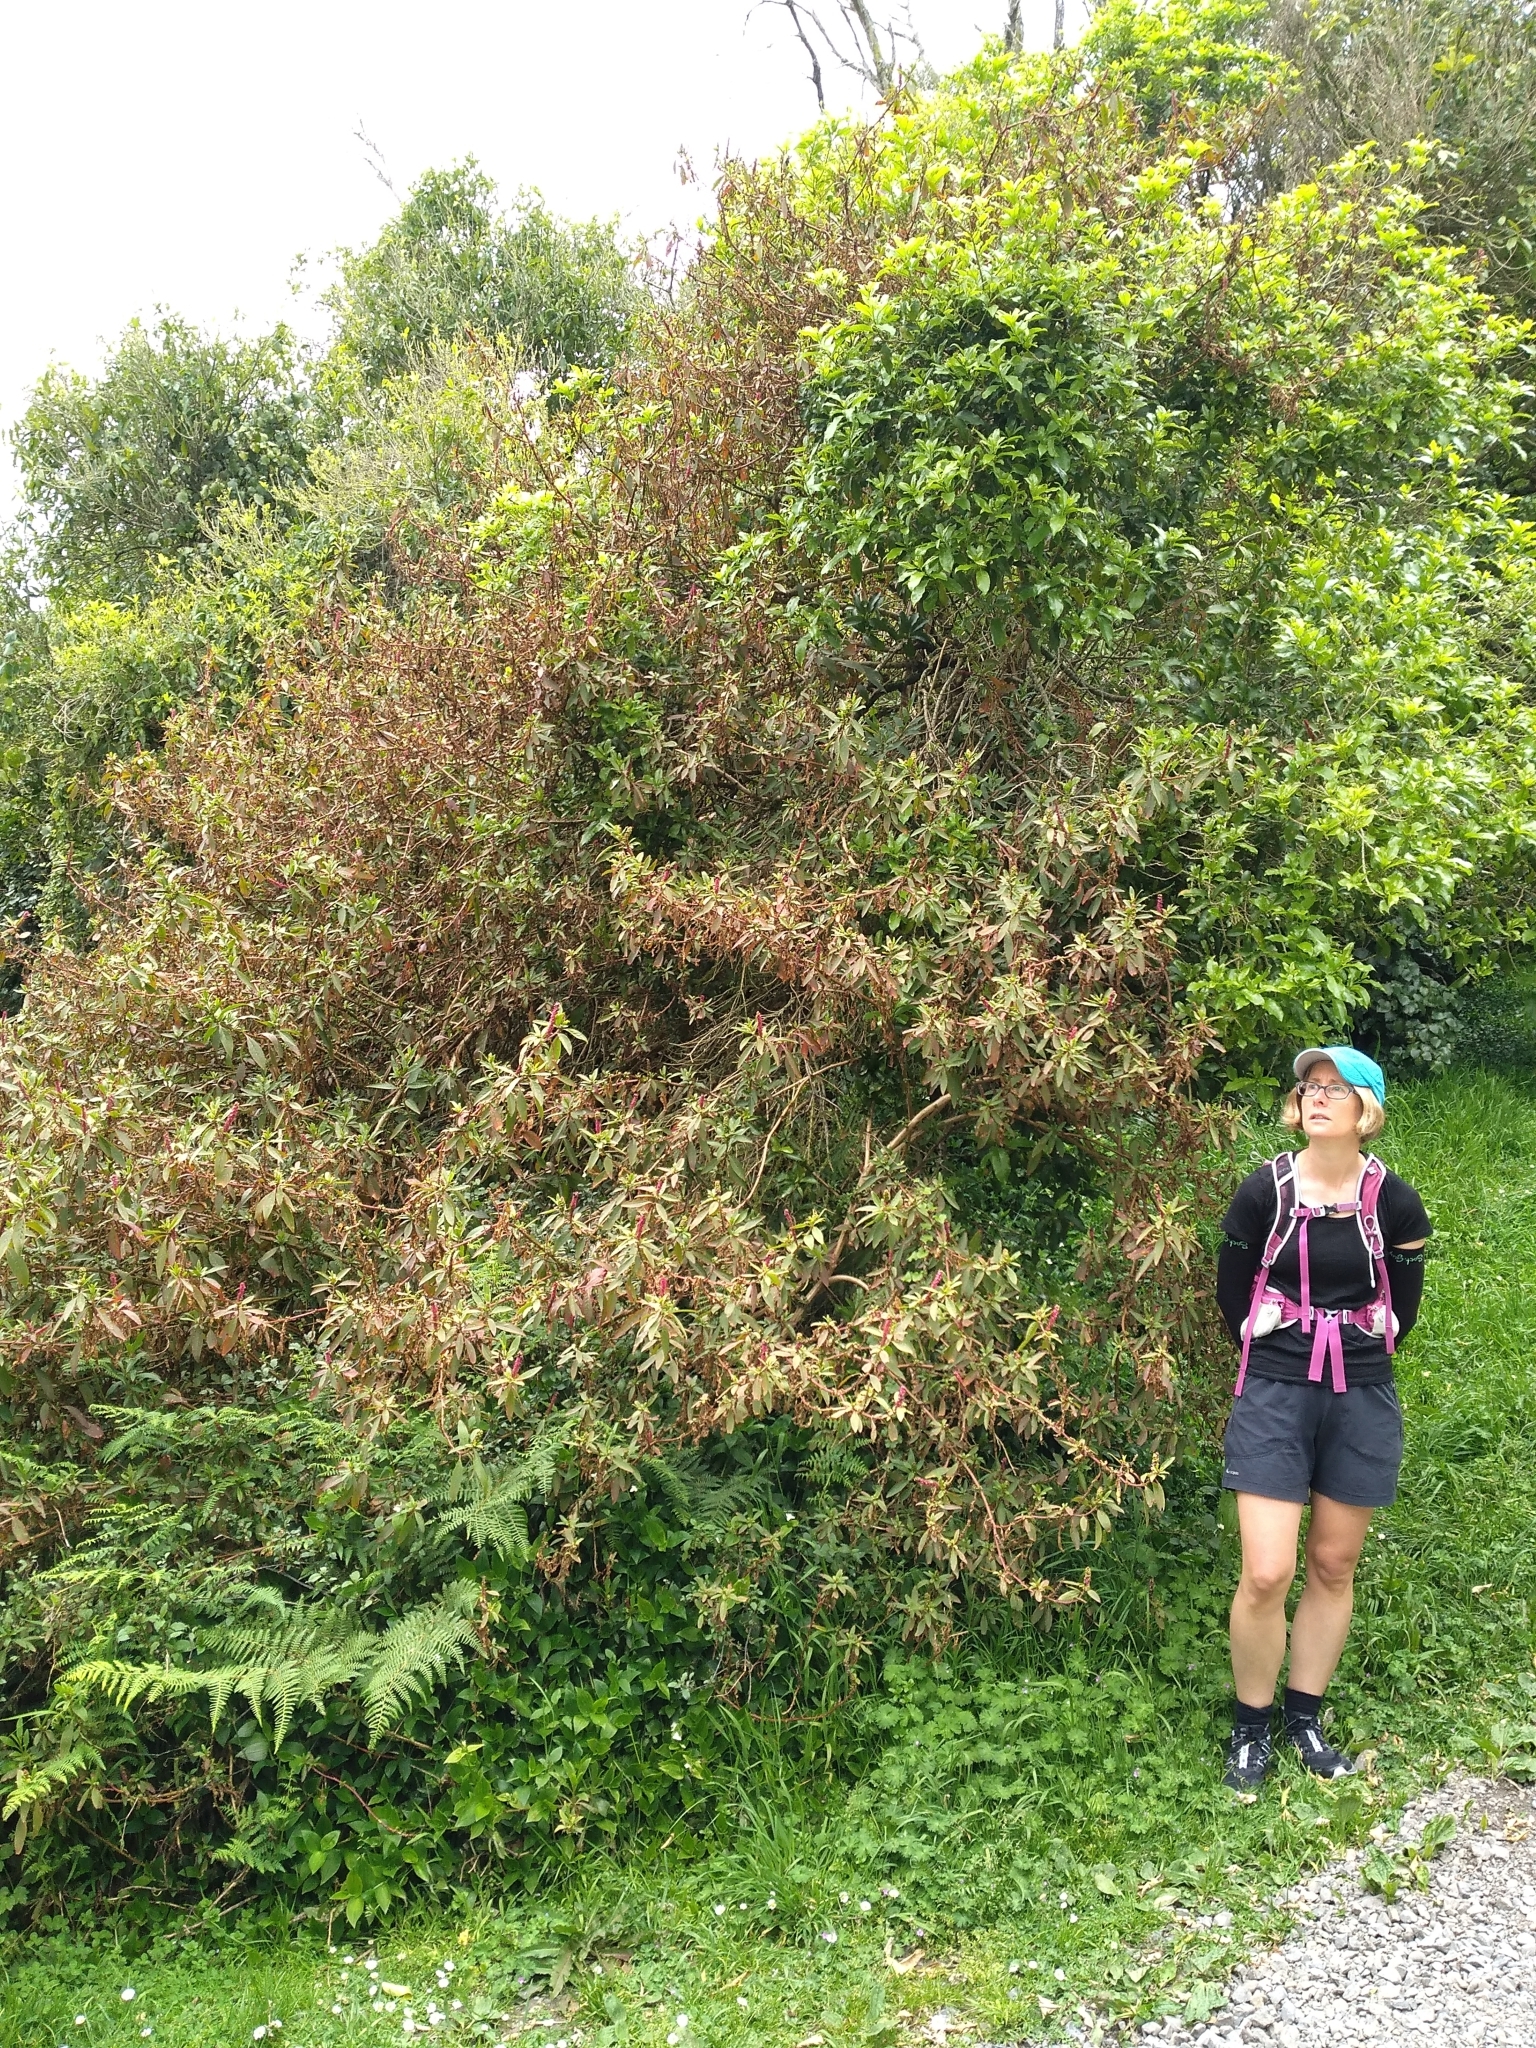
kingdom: Plantae
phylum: Tracheophyta
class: Magnoliopsida
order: Caryophyllales
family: Phytolaccaceae
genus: Phytolacca
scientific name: Phytolacca icosandra
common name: Button pokeweed
